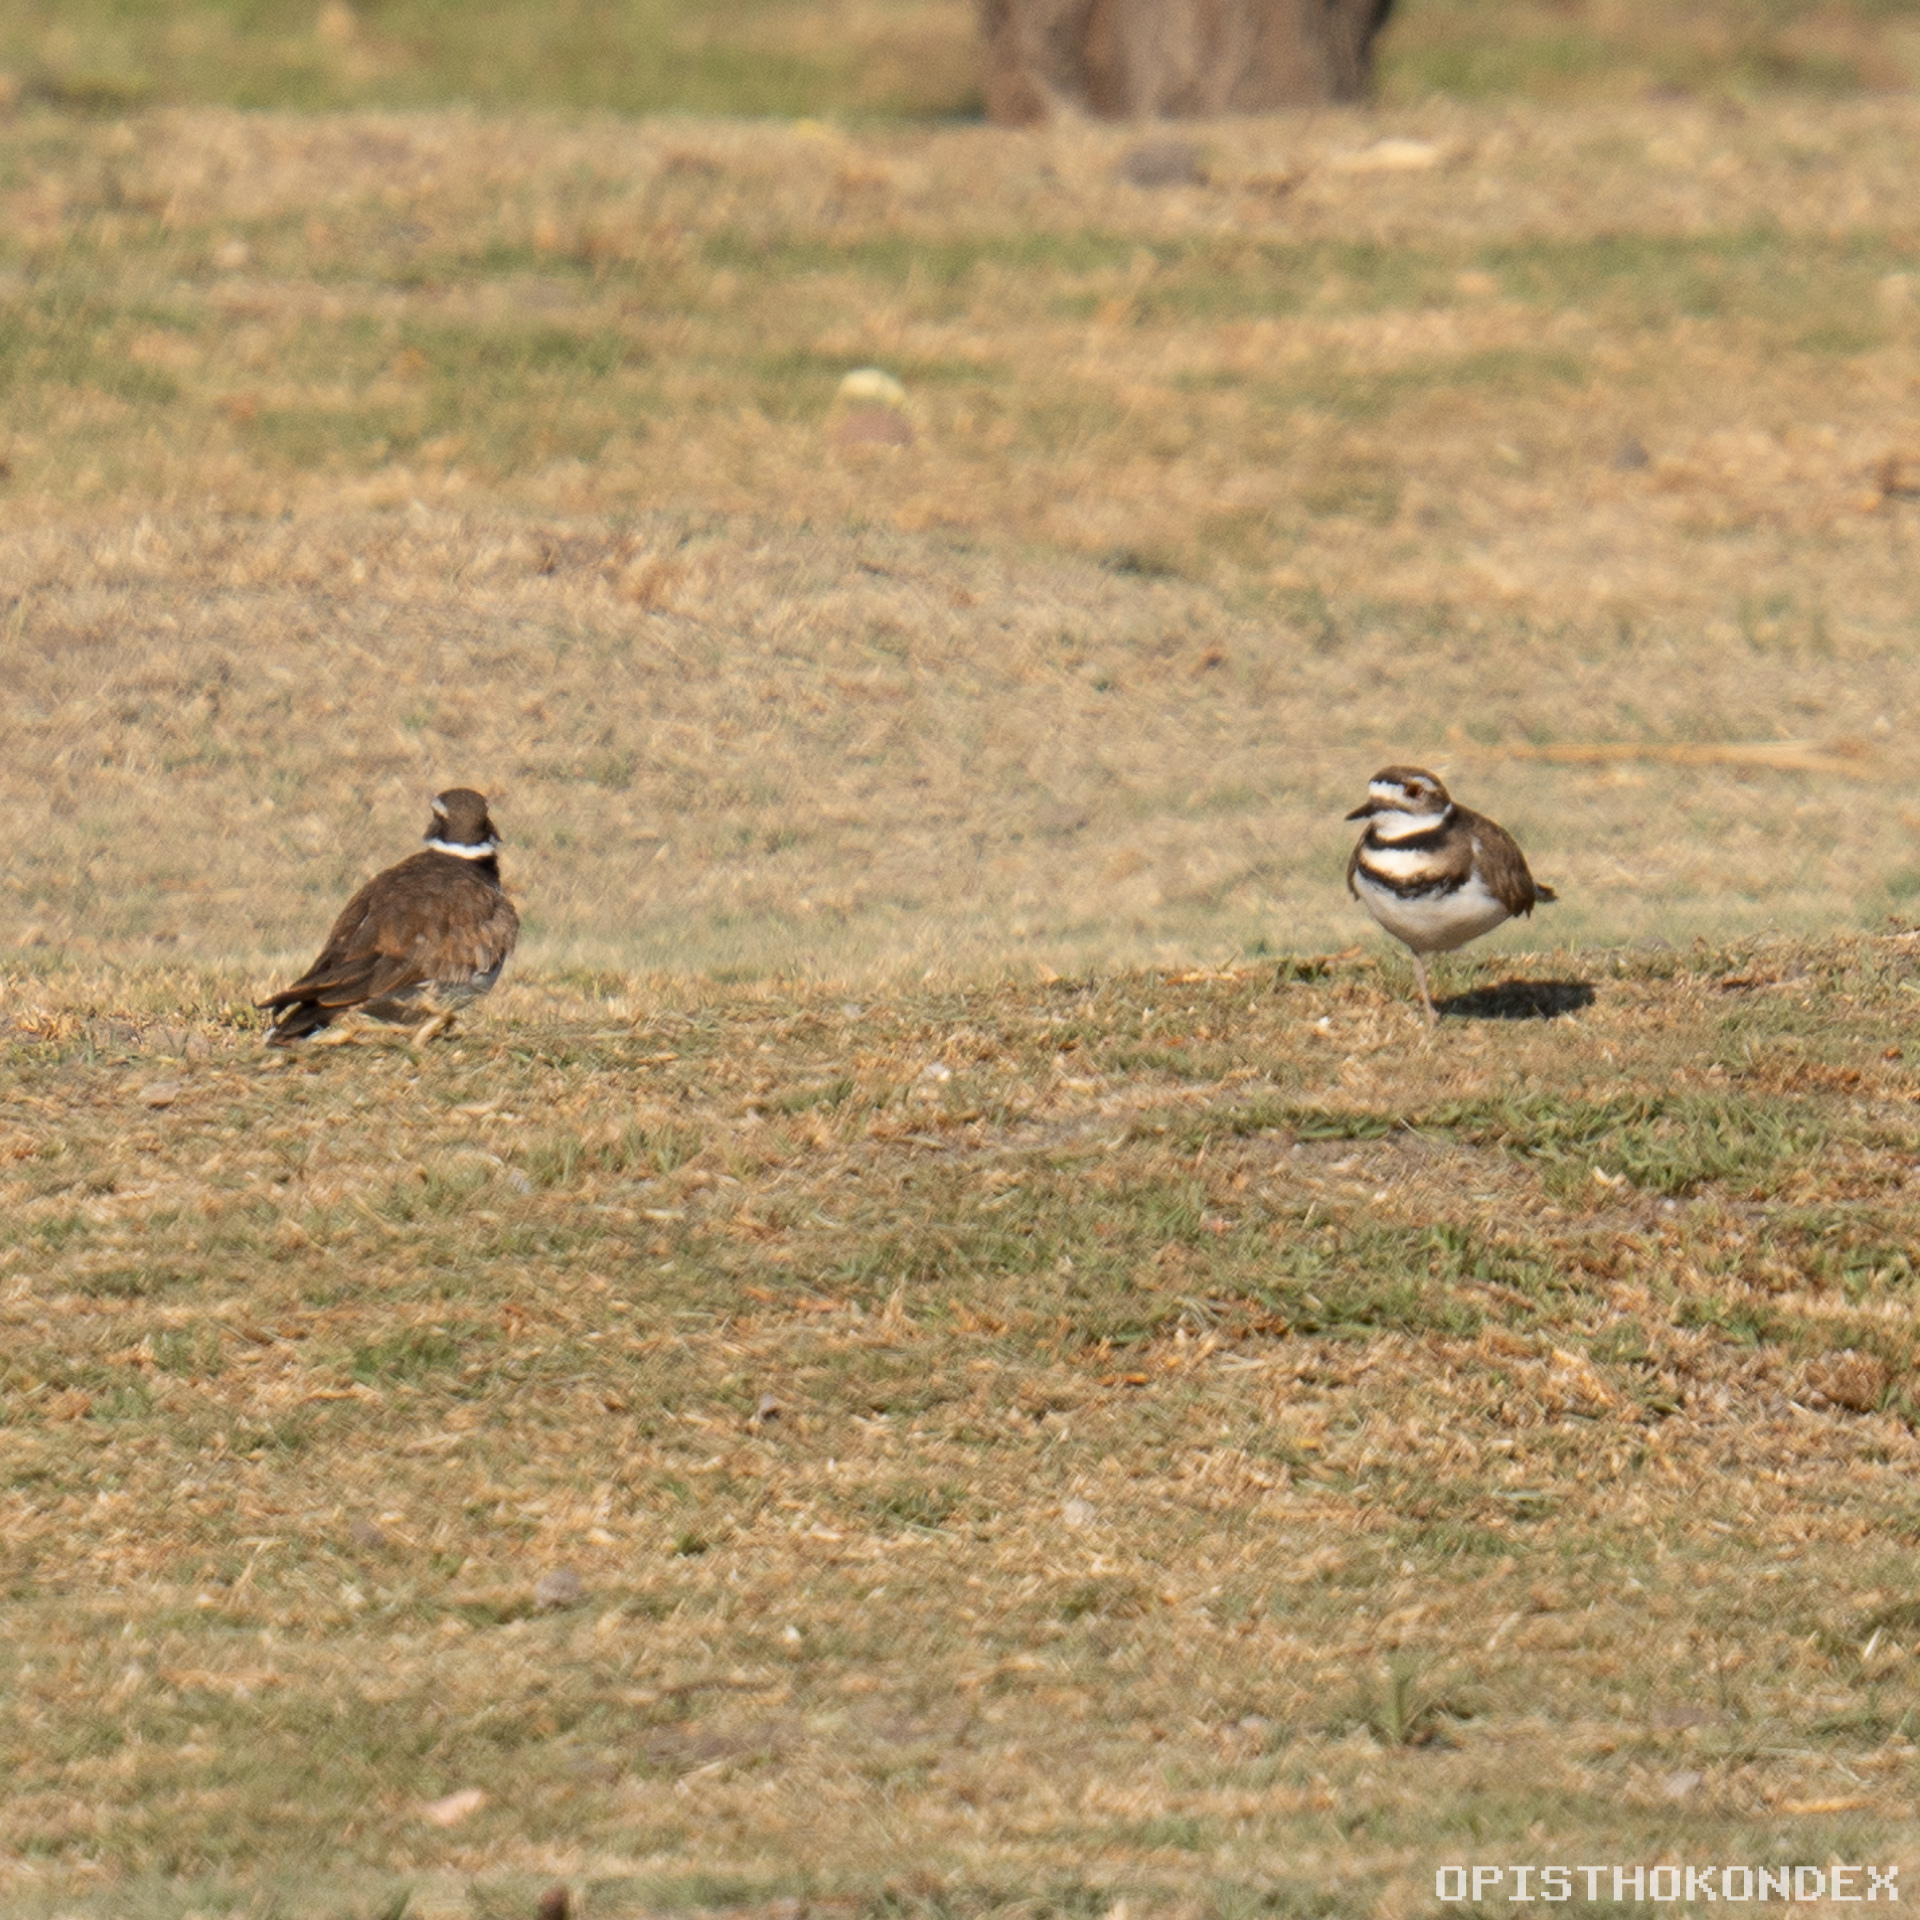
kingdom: Animalia
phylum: Chordata
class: Aves
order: Charadriiformes
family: Charadriidae
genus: Charadrius
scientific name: Charadrius vociferus
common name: Killdeer
